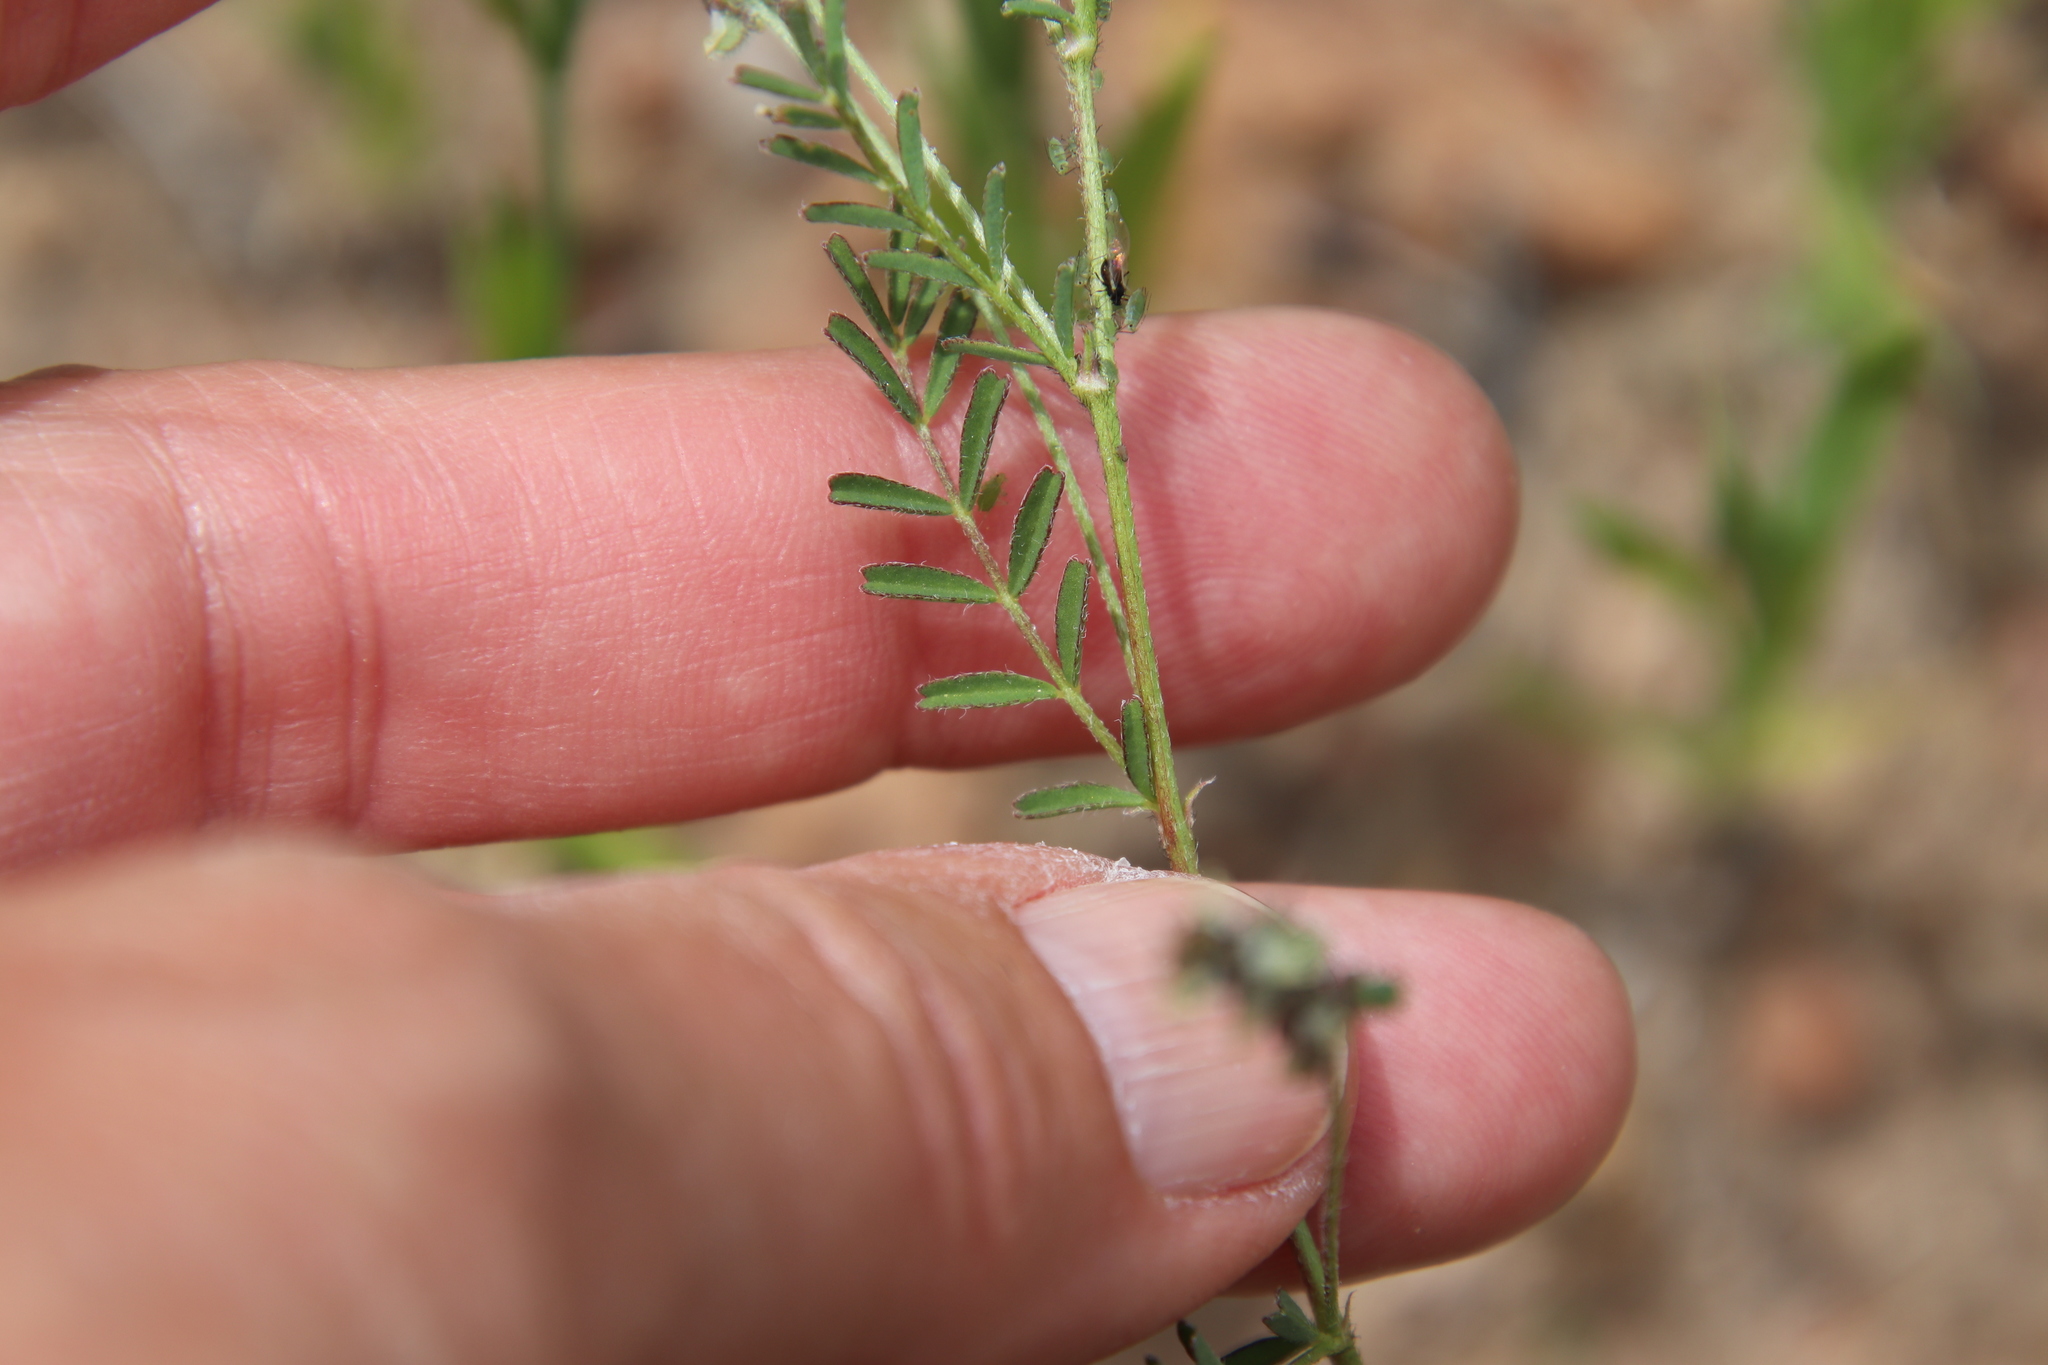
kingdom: Plantae
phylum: Tracheophyta
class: Magnoliopsida
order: Fabales
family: Fabaceae
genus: Astragalus
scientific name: Astragalus gambelianus
